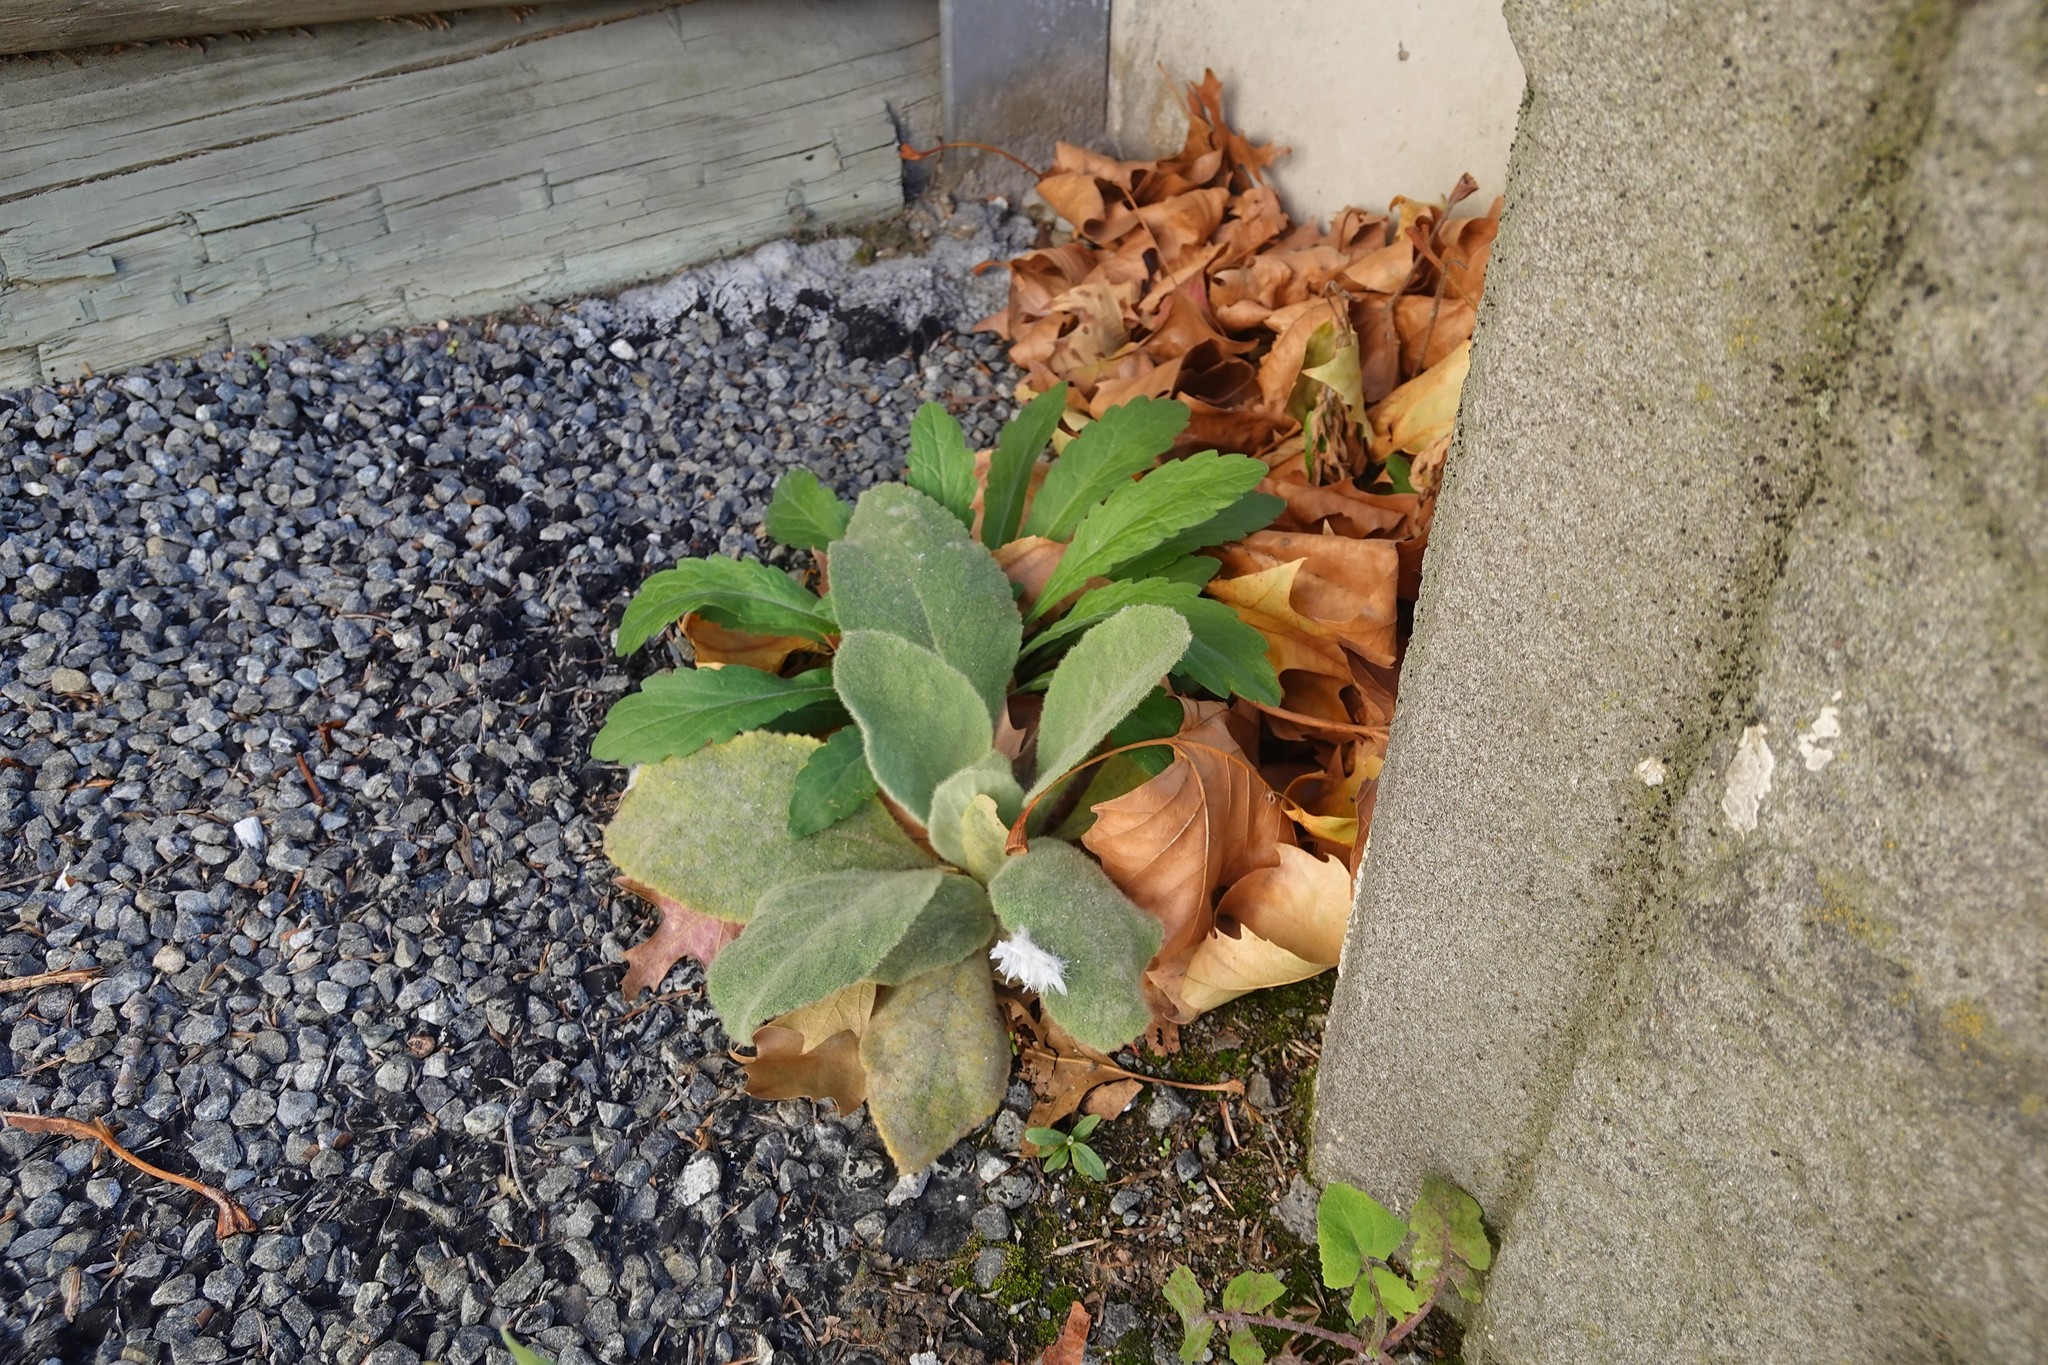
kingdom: Plantae
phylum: Tracheophyta
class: Magnoliopsida
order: Lamiales
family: Scrophulariaceae
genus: Verbascum
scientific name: Verbascum thapsus
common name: Common mullein
